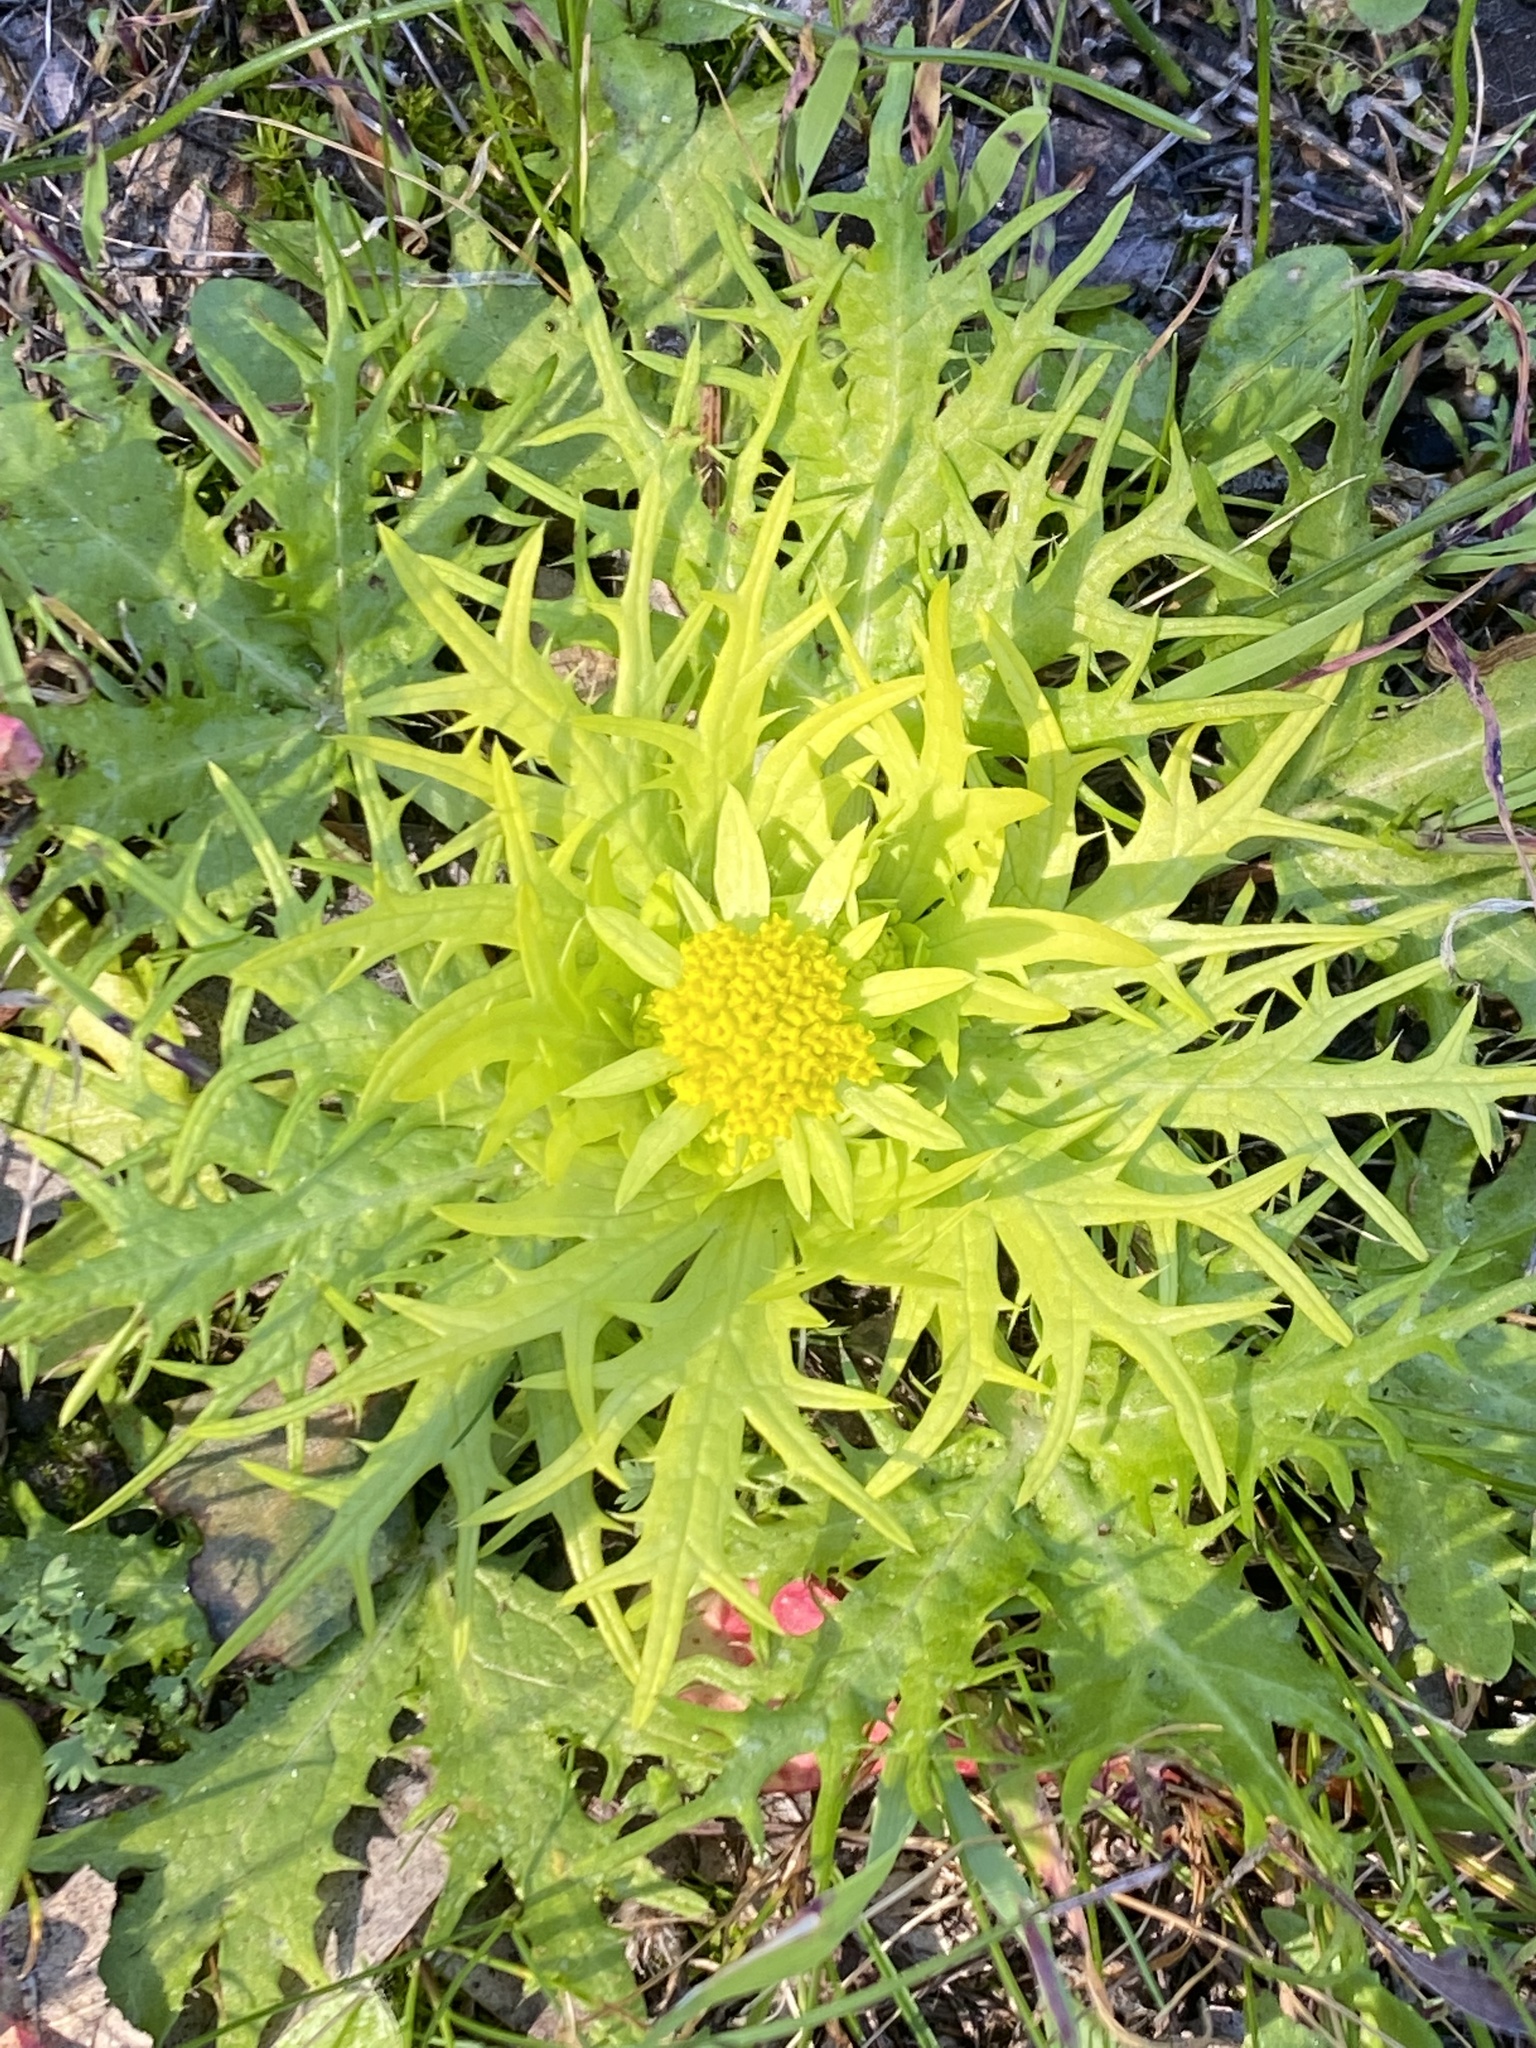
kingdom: Plantae
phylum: Tracheophyta
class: Magnoliopsida
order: Apiales
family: Apiaceae
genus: Sanicula
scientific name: Sanicula arctopoides
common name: Footsteps-of-spring
